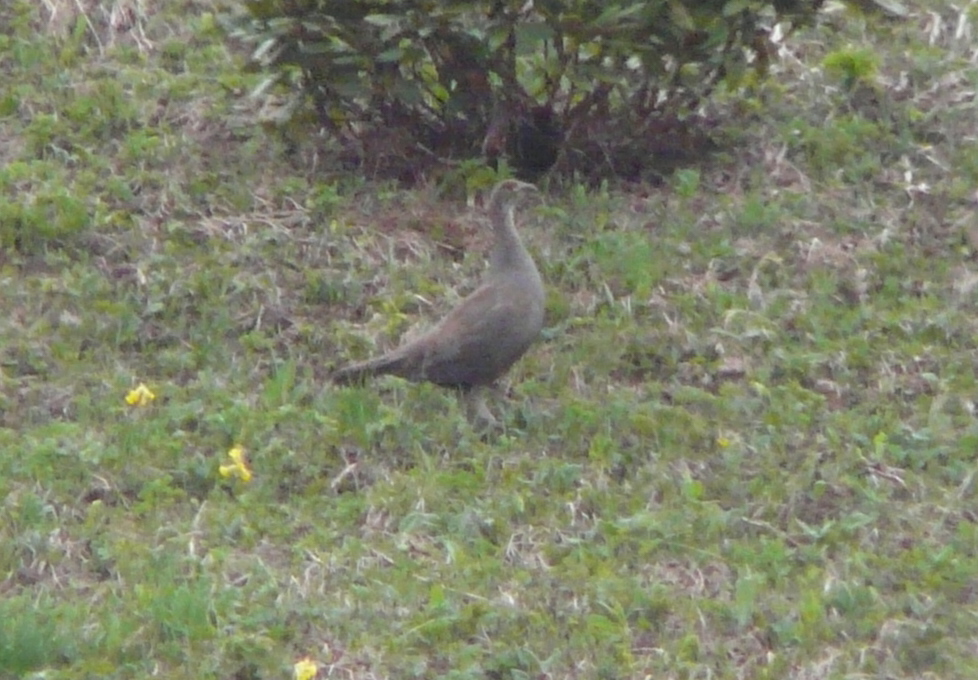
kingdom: Animalia
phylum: Chordata
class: Aves
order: Galliformes
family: Phasianidae
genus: Lyrurus
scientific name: Lyrurus mlokosiewiczi
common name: Caucasian grouse
